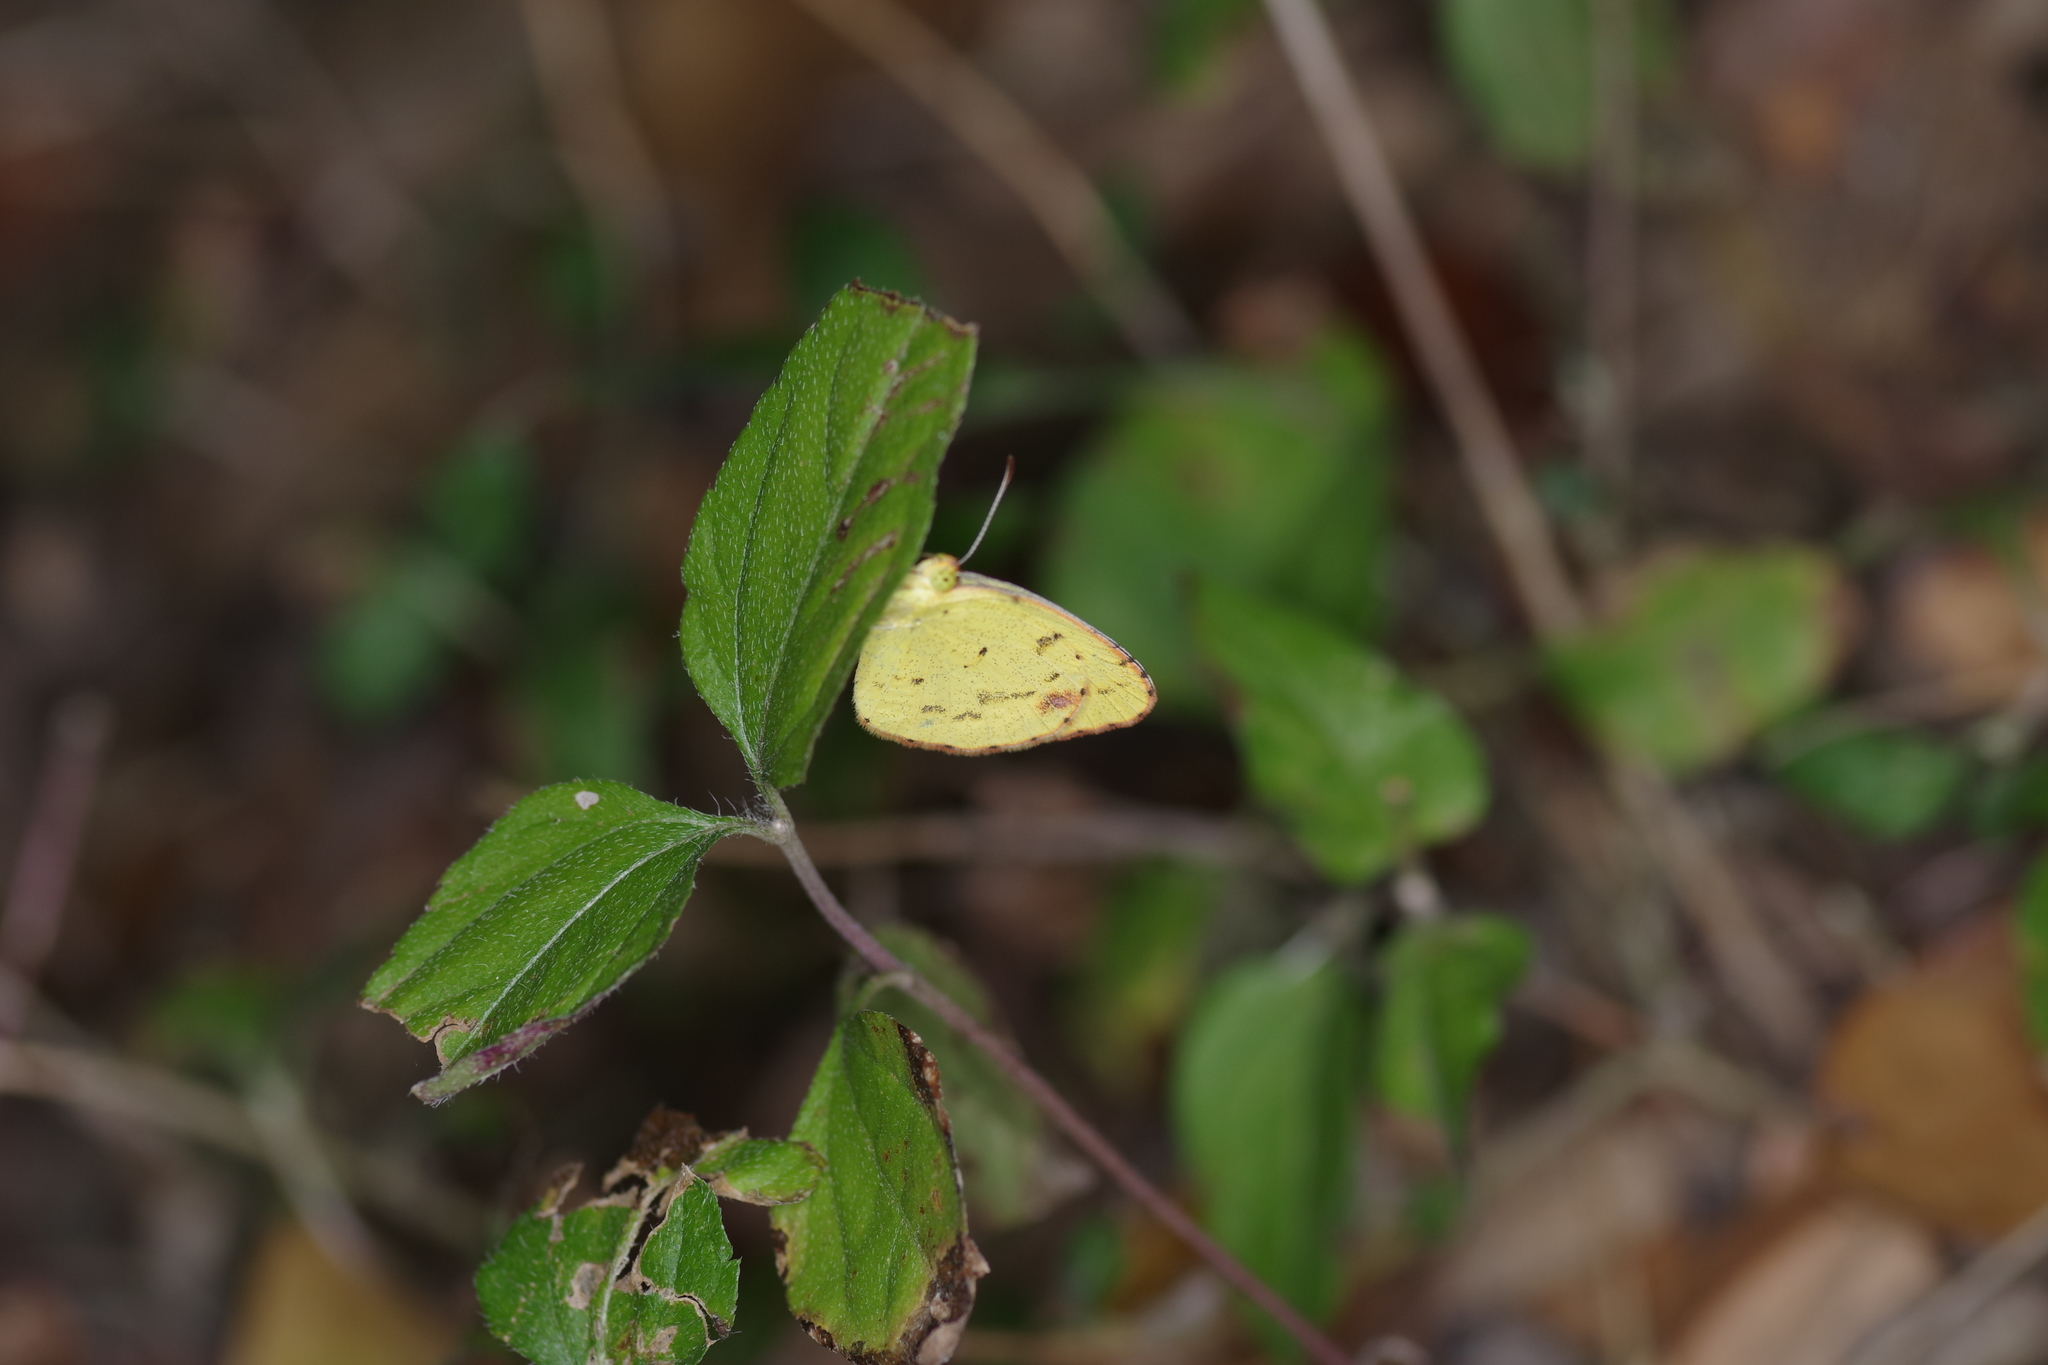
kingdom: Animalia
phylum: Arthropoda
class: Insecta
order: Lepidoptera
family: Pieridae
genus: Pyrisitia
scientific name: Pyrisitia lisa
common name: Little yellow
